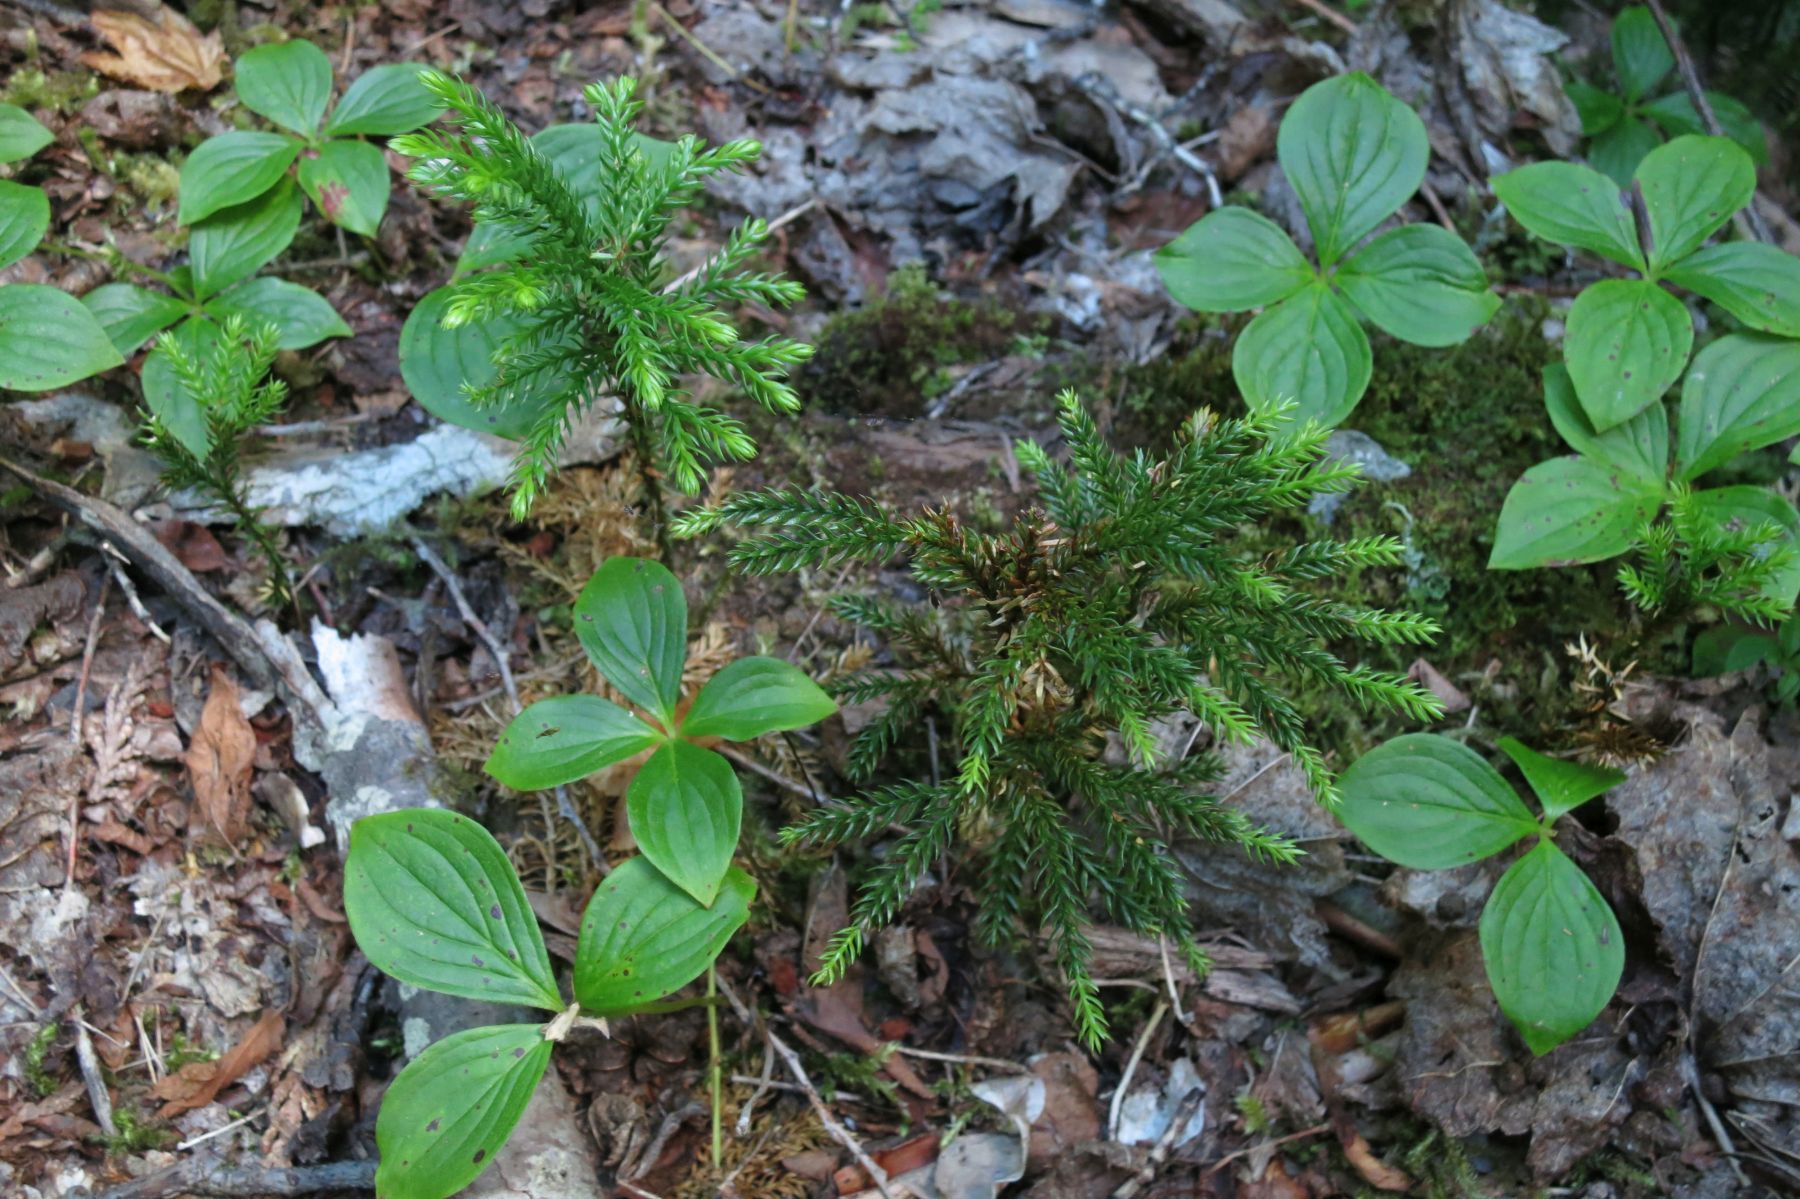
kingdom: Plantae
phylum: Tracheophyta
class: Lycopodiopsida
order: Lycopodiales
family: Lycopodiaceae
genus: Dendrolycopodium
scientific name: Dendrolycopodium dendroideum
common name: Northern tree-clubmoss
